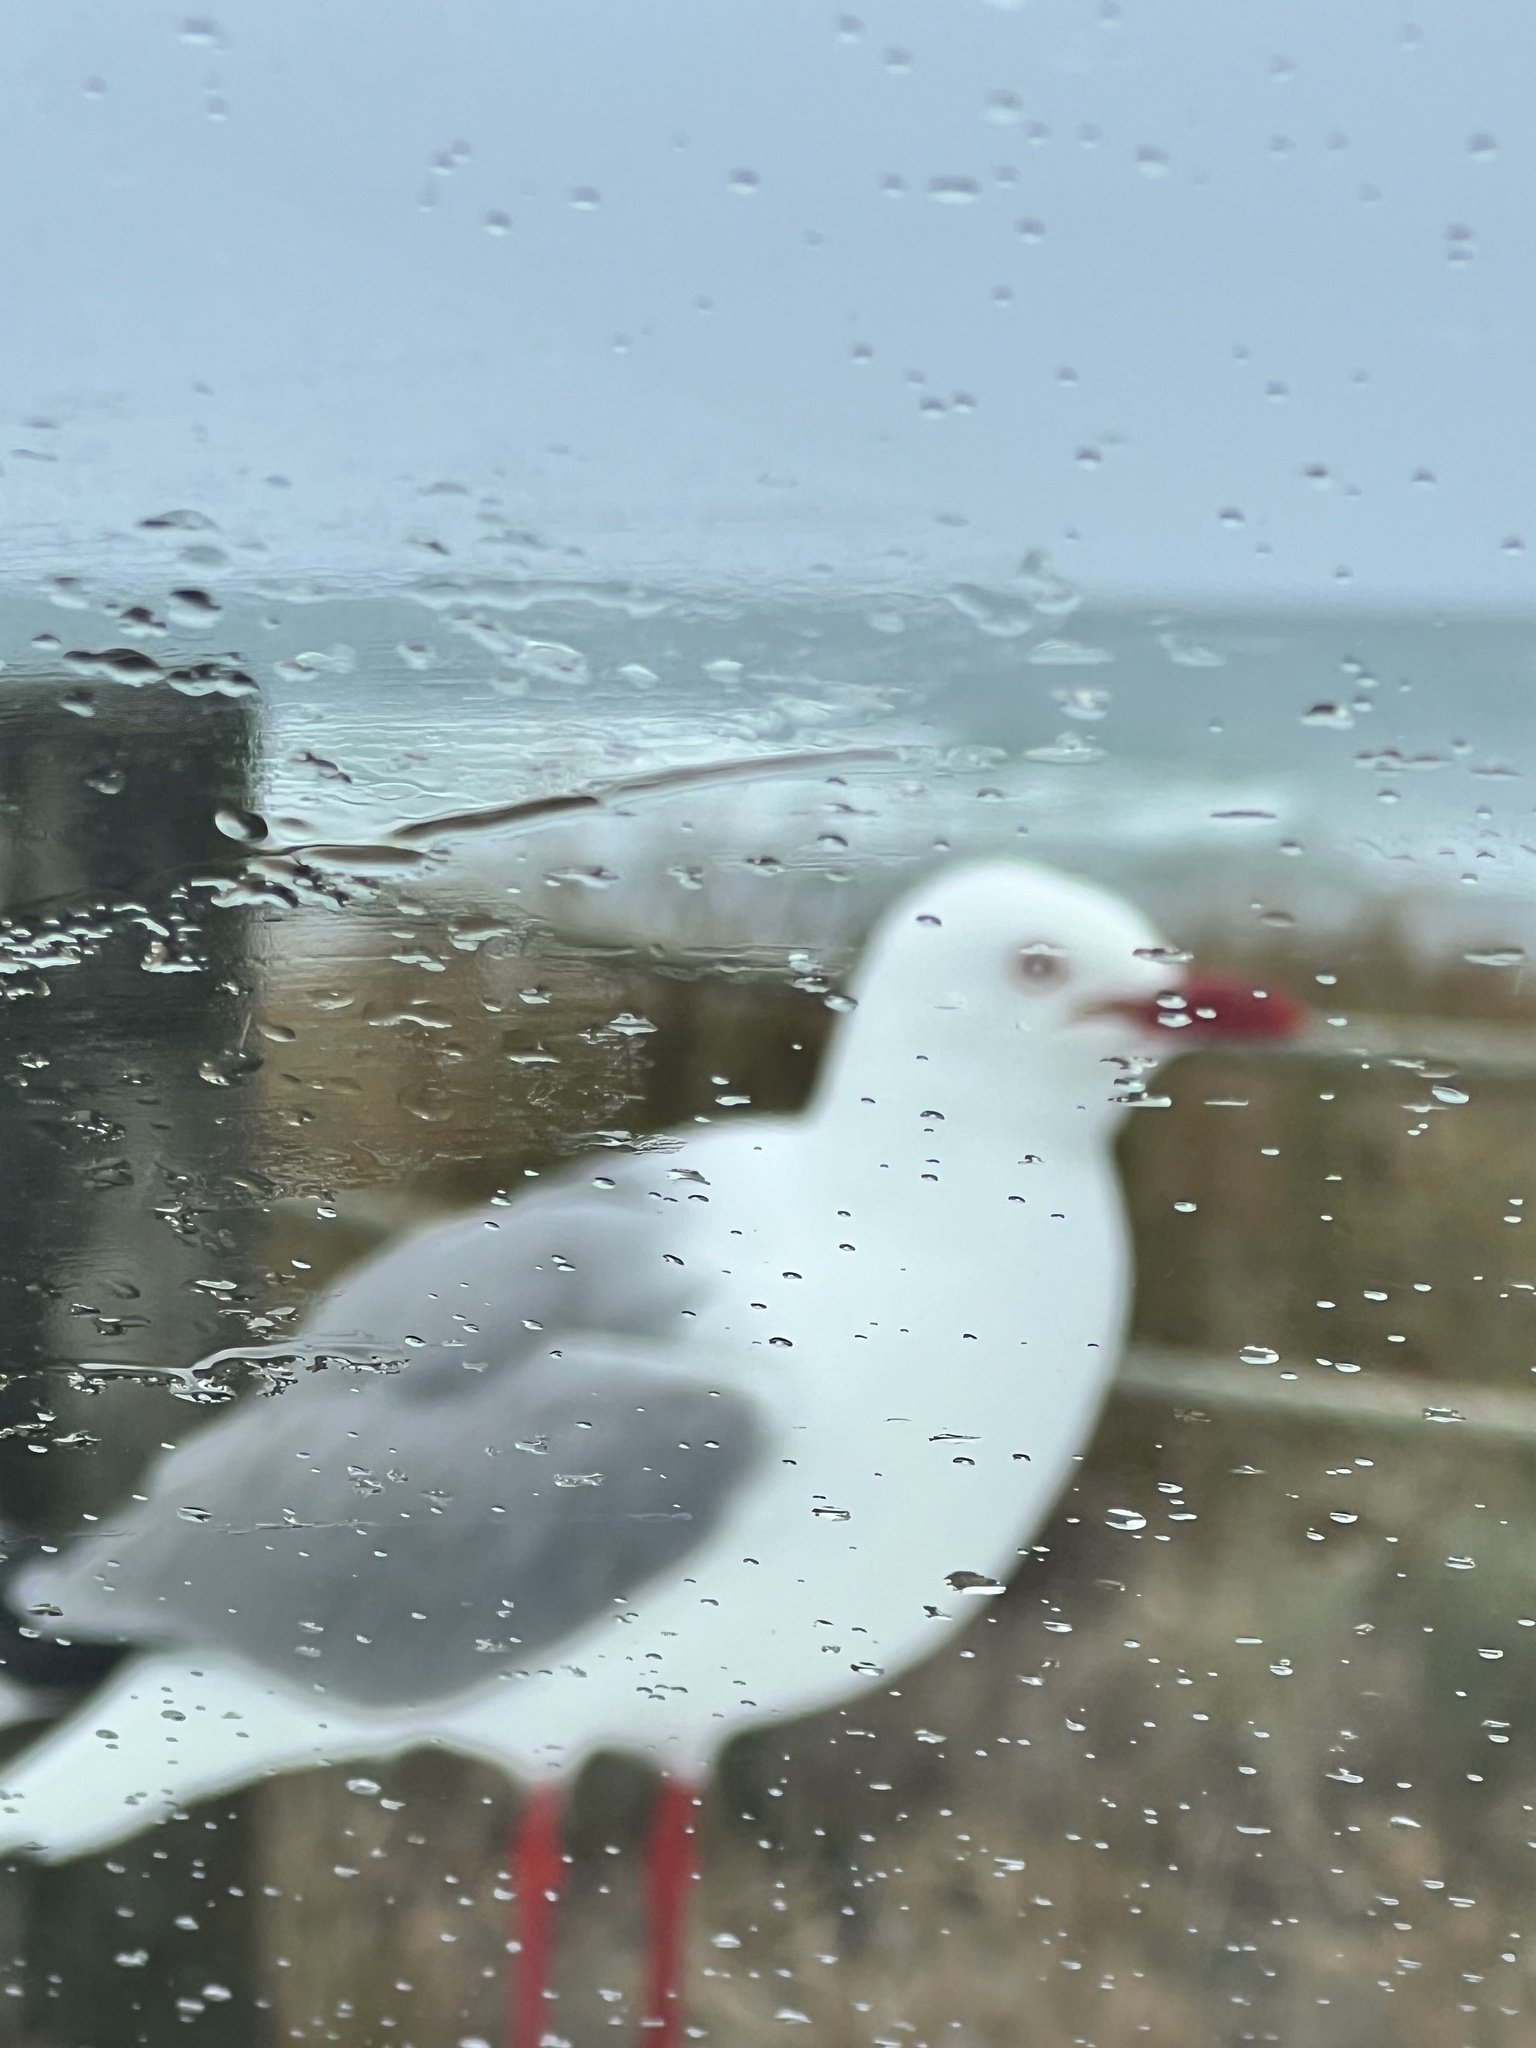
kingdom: Animalia
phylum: Chordata
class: Aves
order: Charadriiformes
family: Laridae
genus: Chroicocephalus
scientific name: Chroicocephalus novaehollandiae
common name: Silver gull
